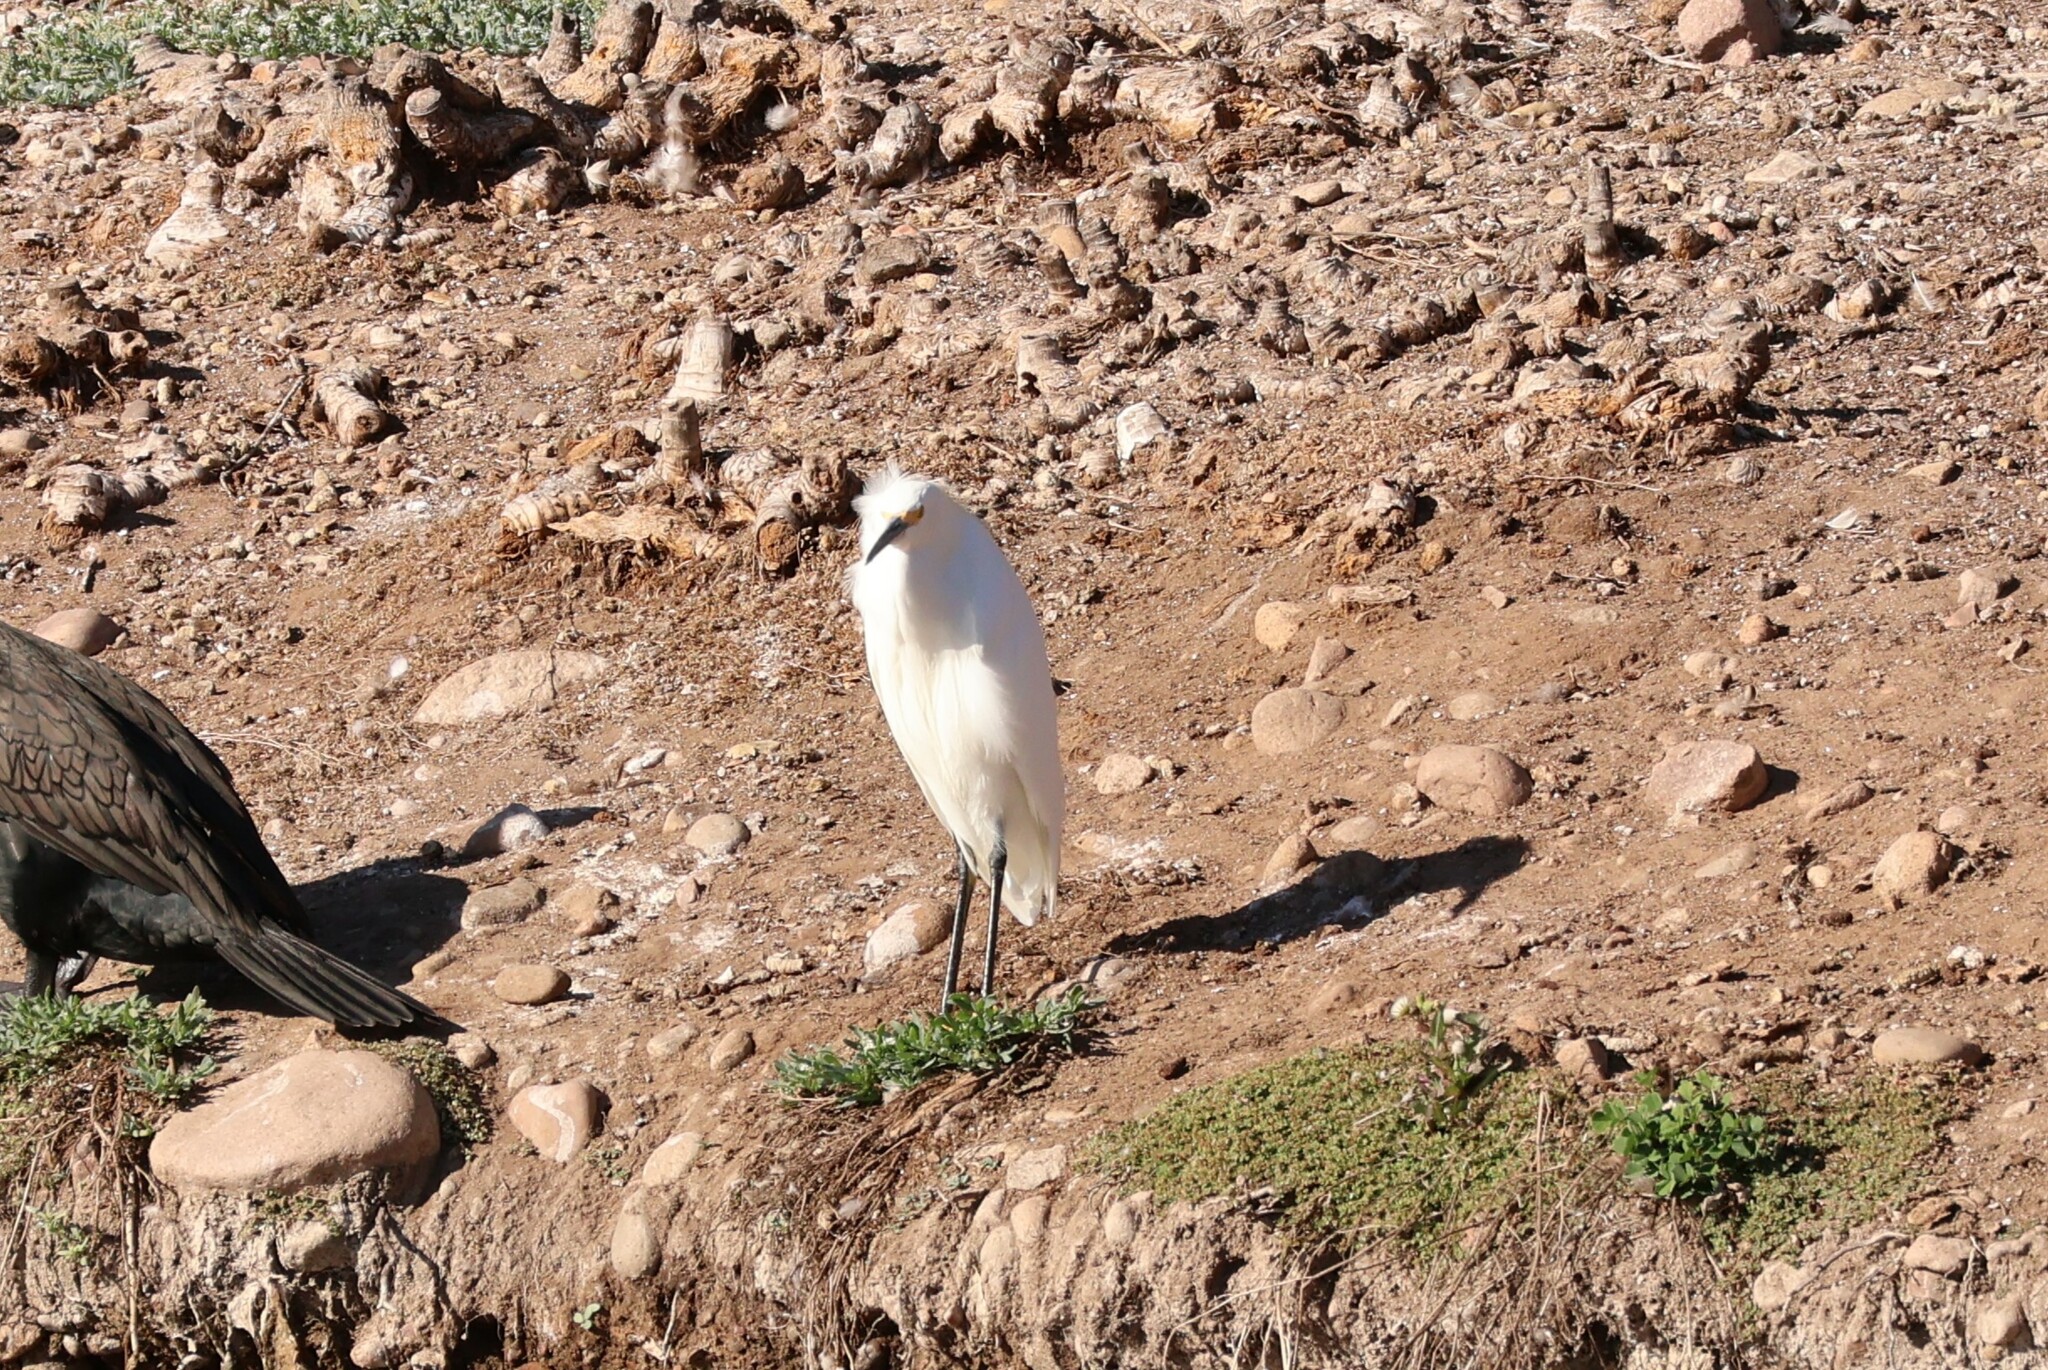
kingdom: Animalia
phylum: Chordata
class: Aves
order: Pelecaniformes
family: Ardeidae
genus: Egretta
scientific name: Egretta thula
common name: Snowy egret
